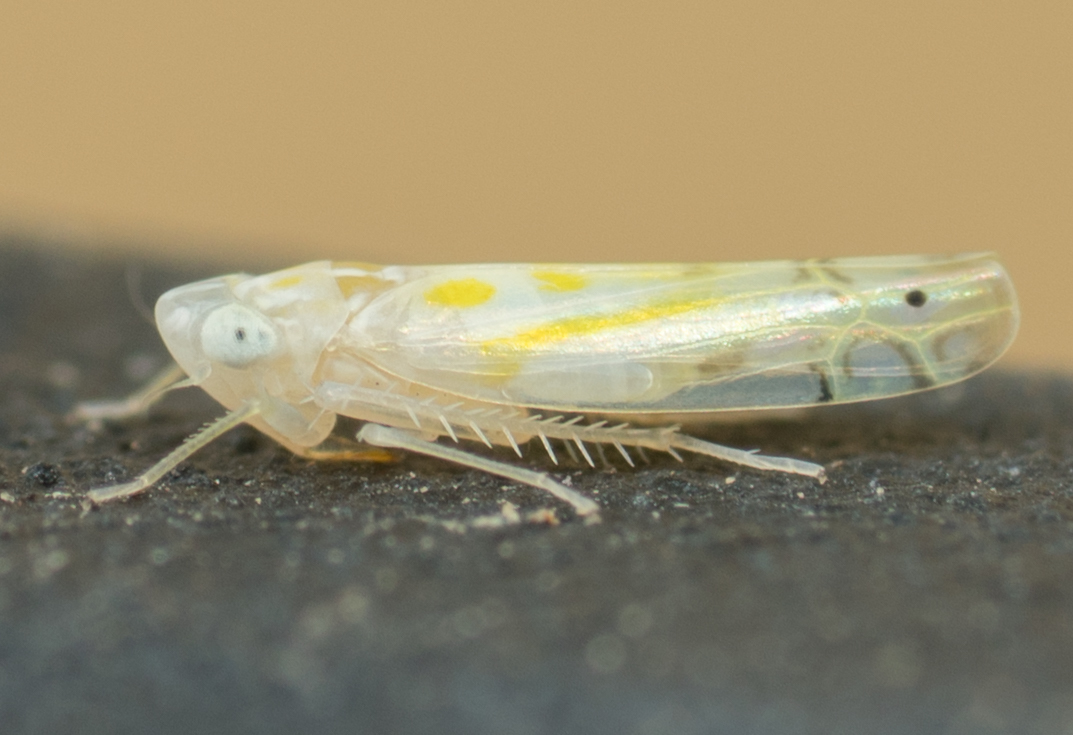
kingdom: Animalia
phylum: Arthropoda
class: Insecta
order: Hemiptera
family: Cicadellidae
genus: Alconeura
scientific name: Alconeura quadrimaculata
